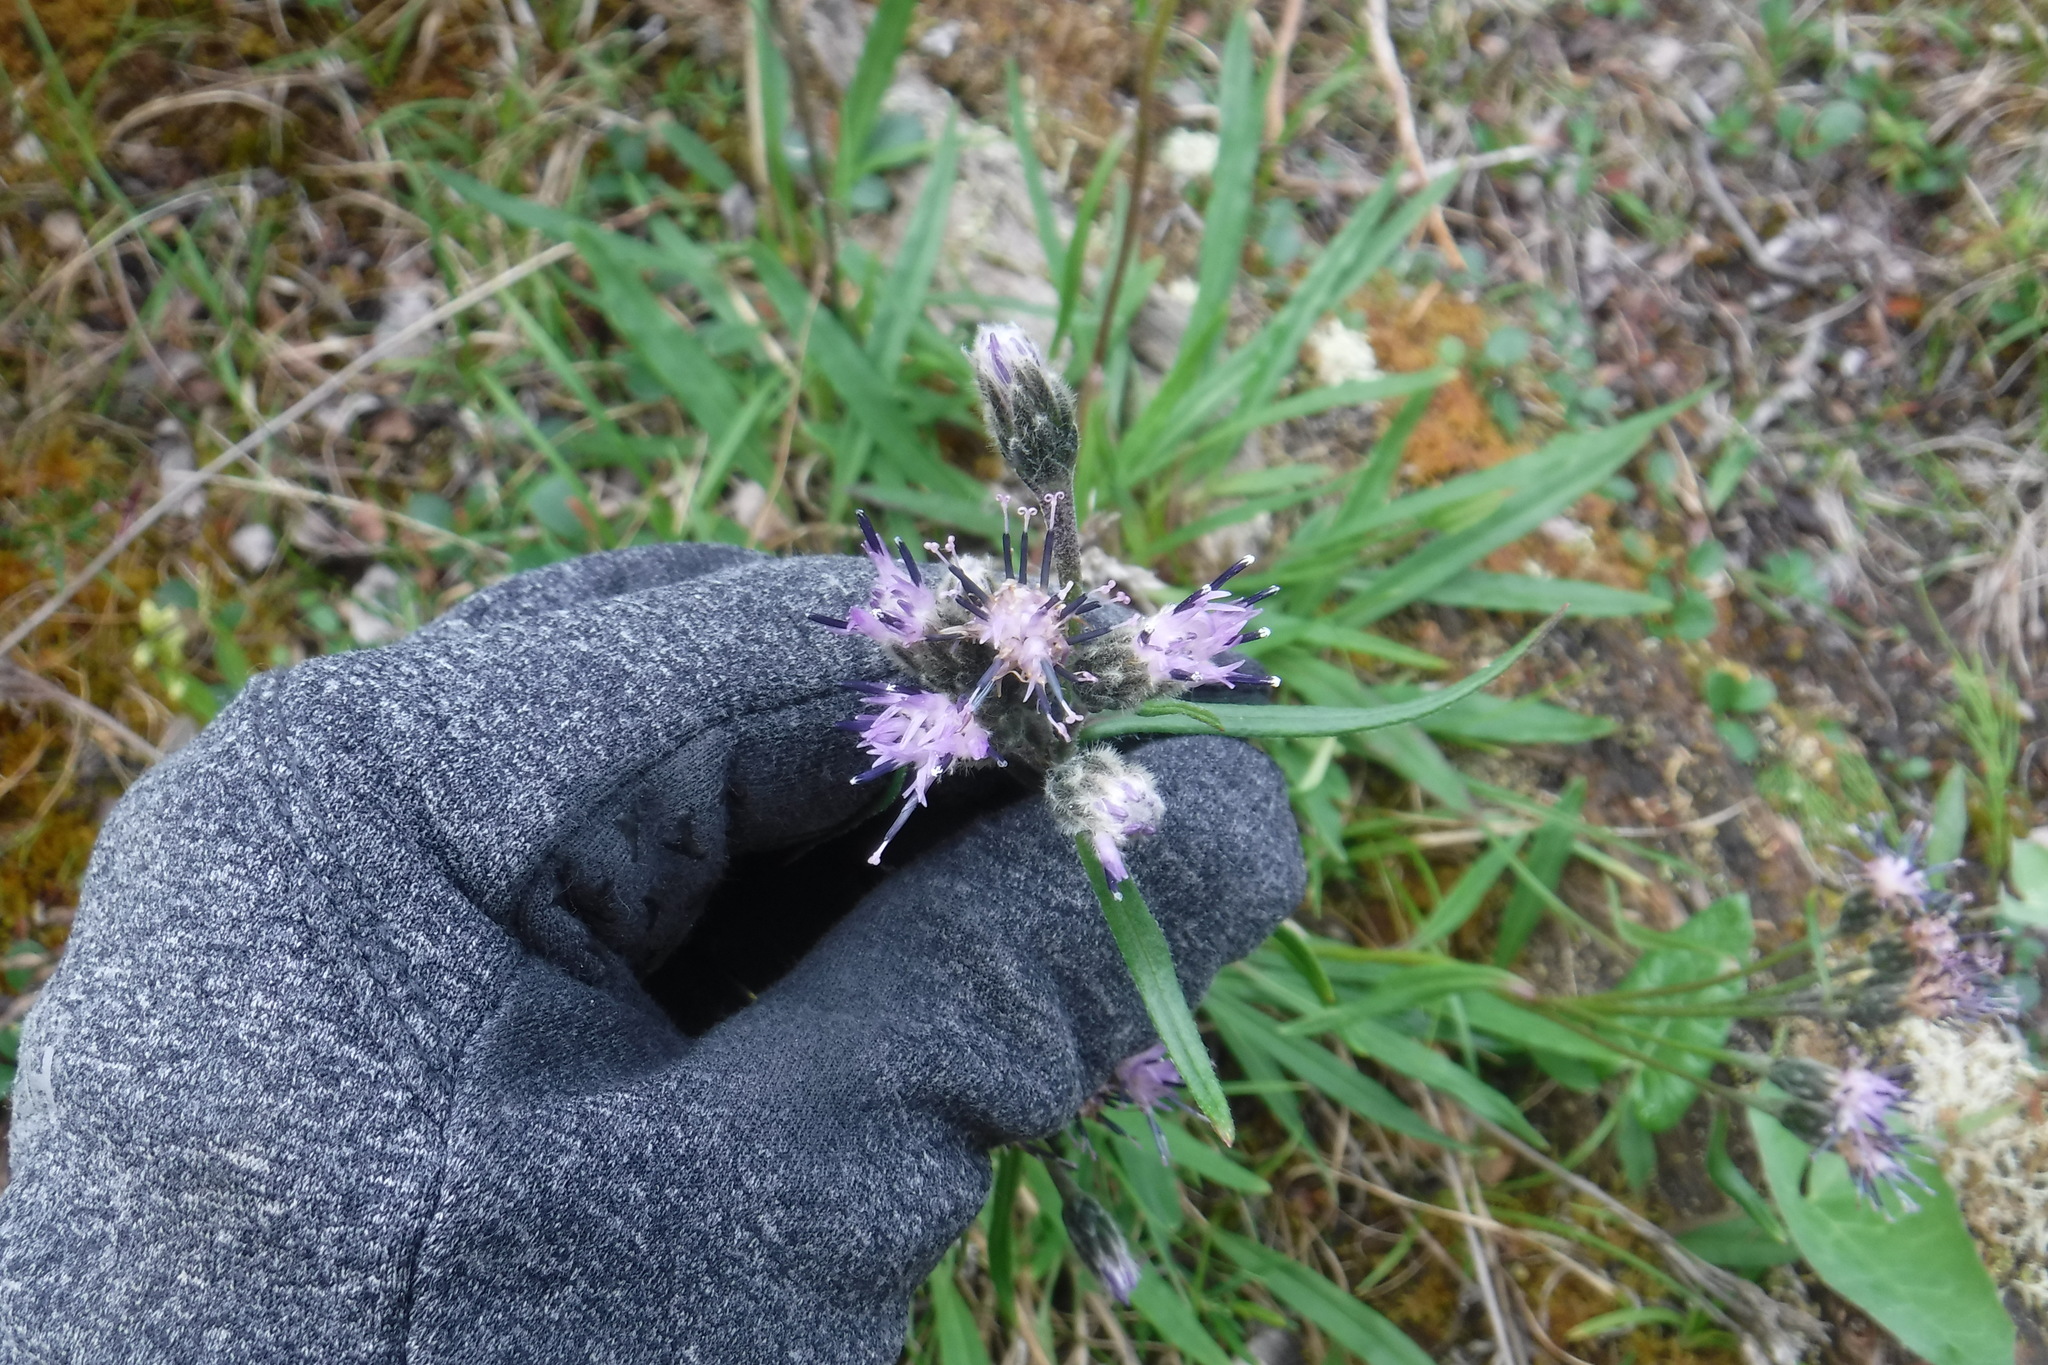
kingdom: Plantae
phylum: Tracheophyta
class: Magnoliopsida
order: Asterales
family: Asteraceae
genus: Saussurea
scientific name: Saussurea angustifolia
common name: Common saussurea
